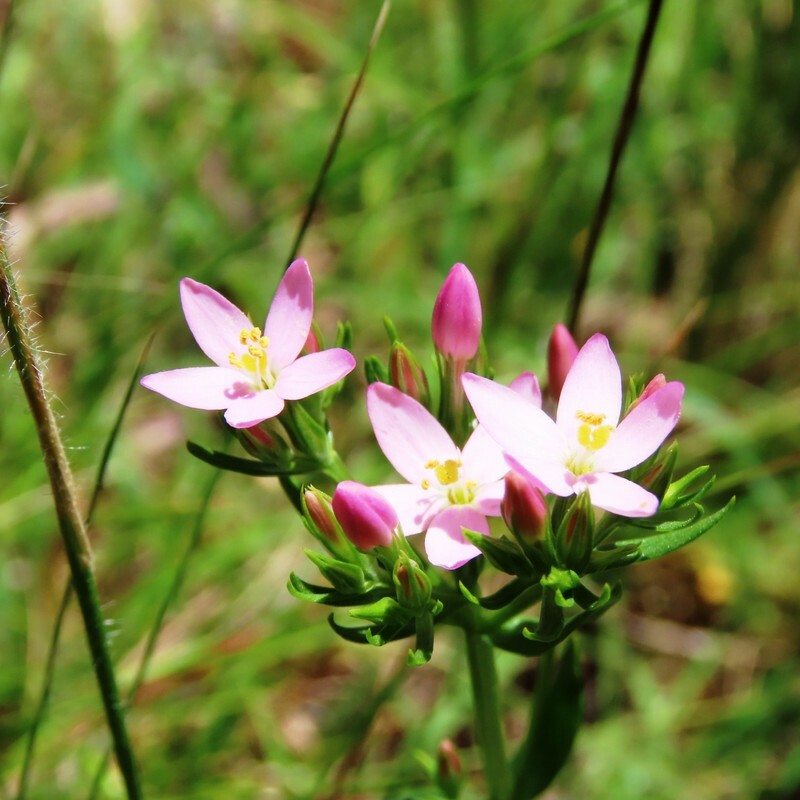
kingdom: Plantae
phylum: Tracheophyta
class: Magnoliopsida
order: Gentianales
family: Gentianaceae
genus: Centaurium
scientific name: Centaurium erythraea
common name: Common centaury
